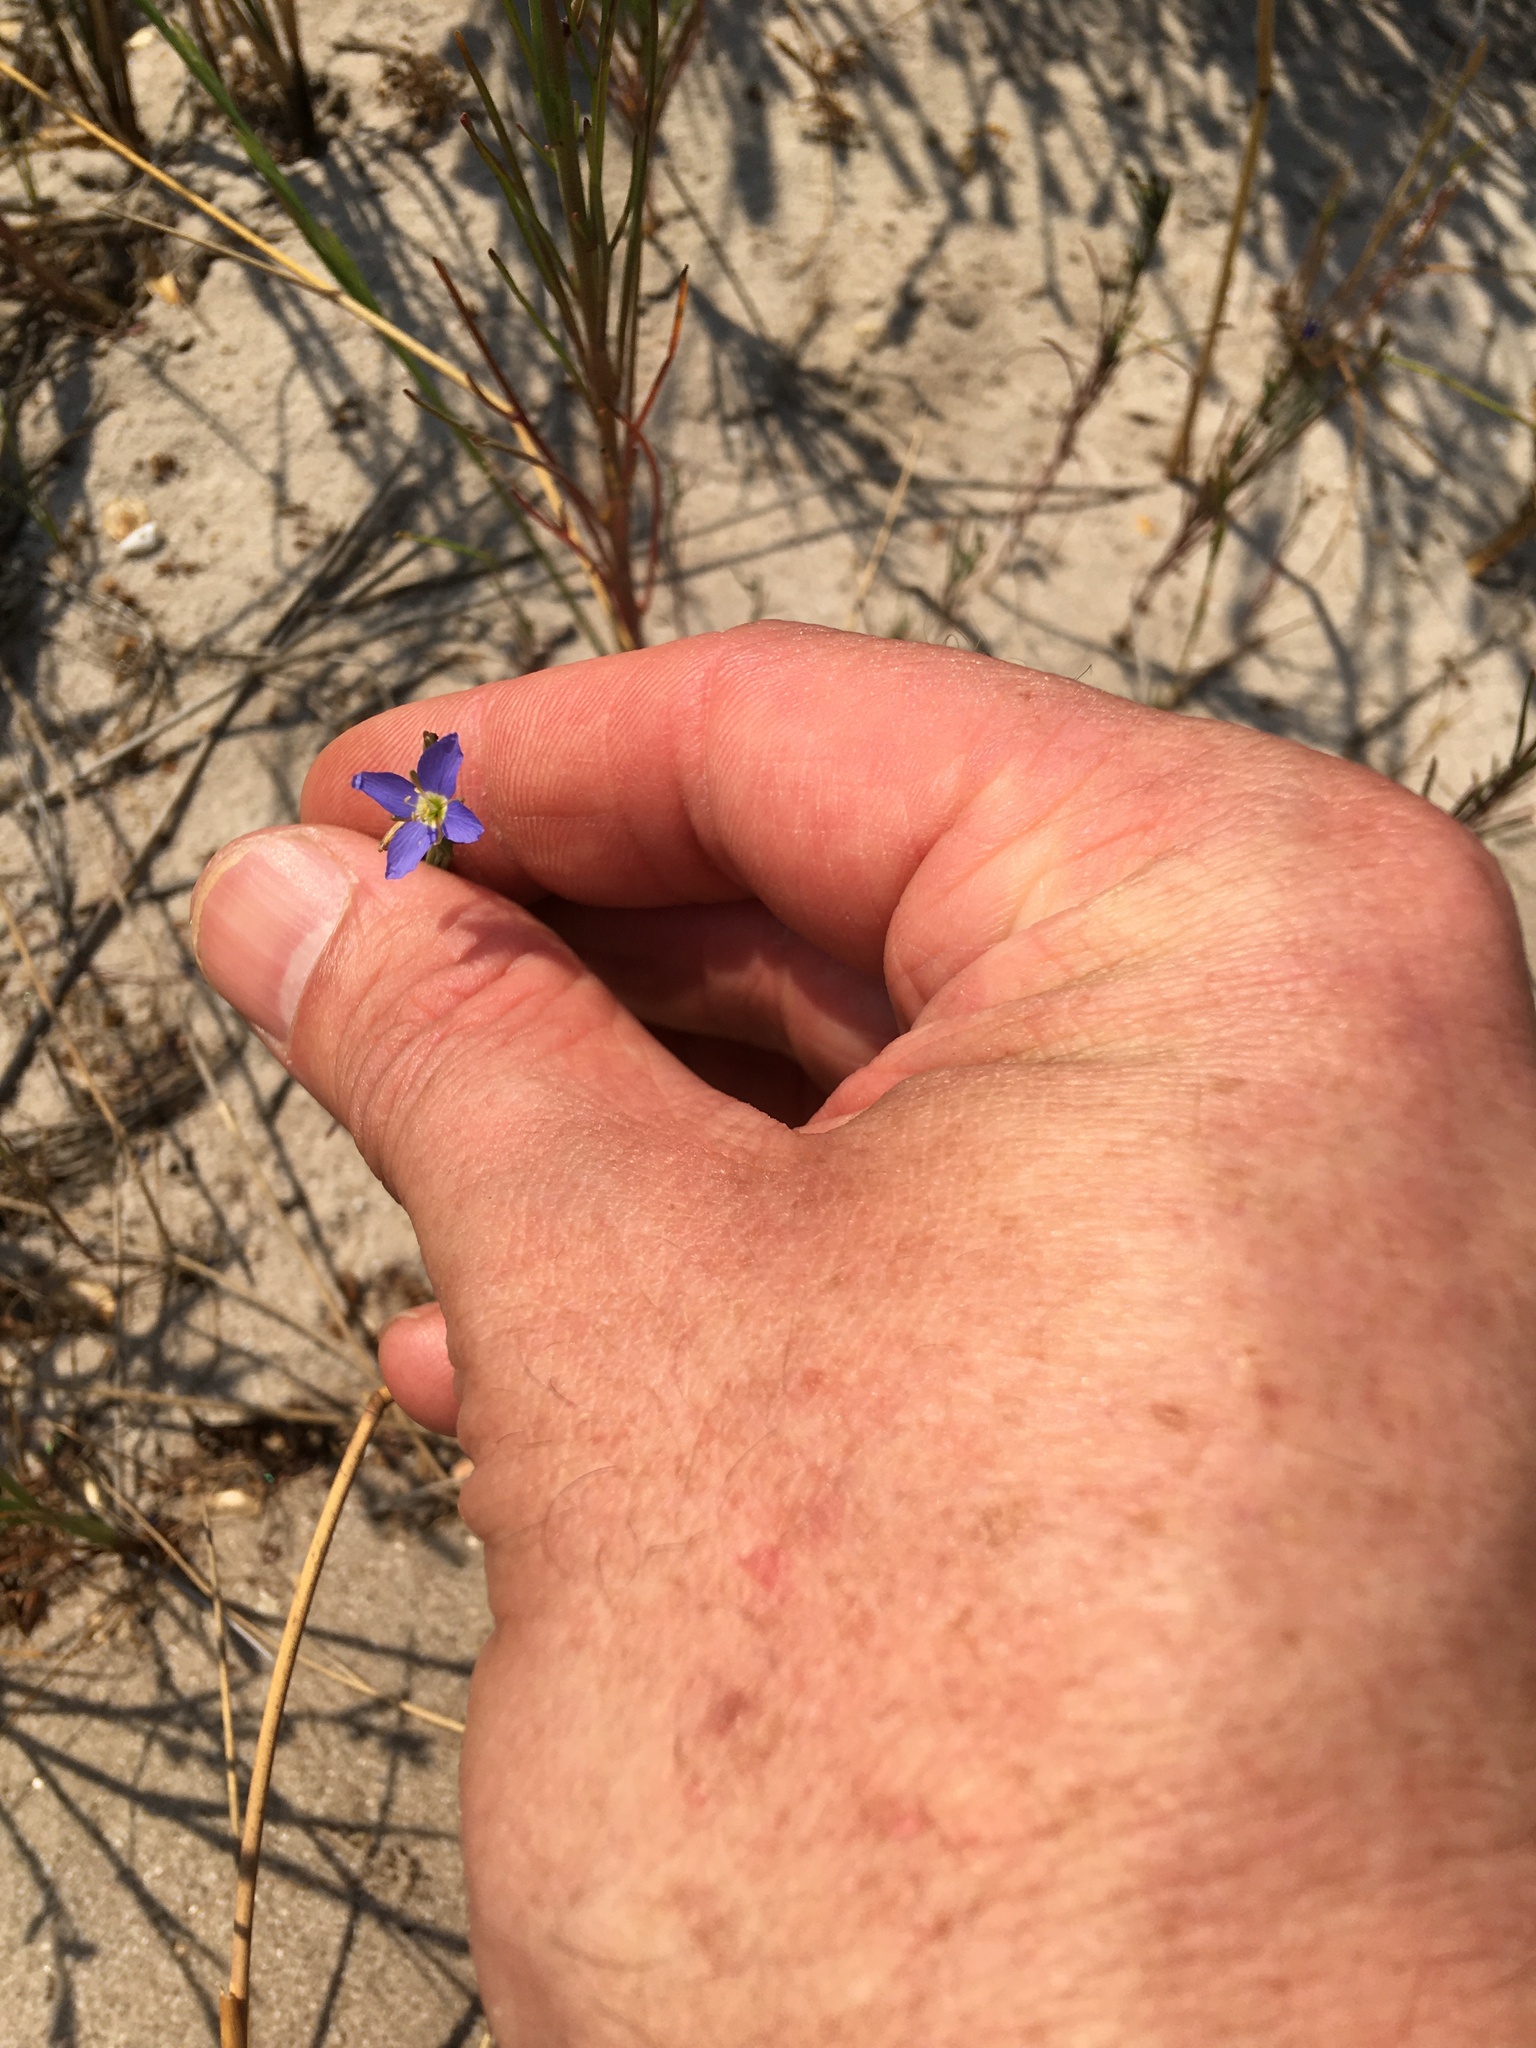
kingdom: Plantae
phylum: Tracheophyta
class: Magnoliopsida
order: Brassicales
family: Brassicaceae
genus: Heliophila
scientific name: Heliophila adpressa
